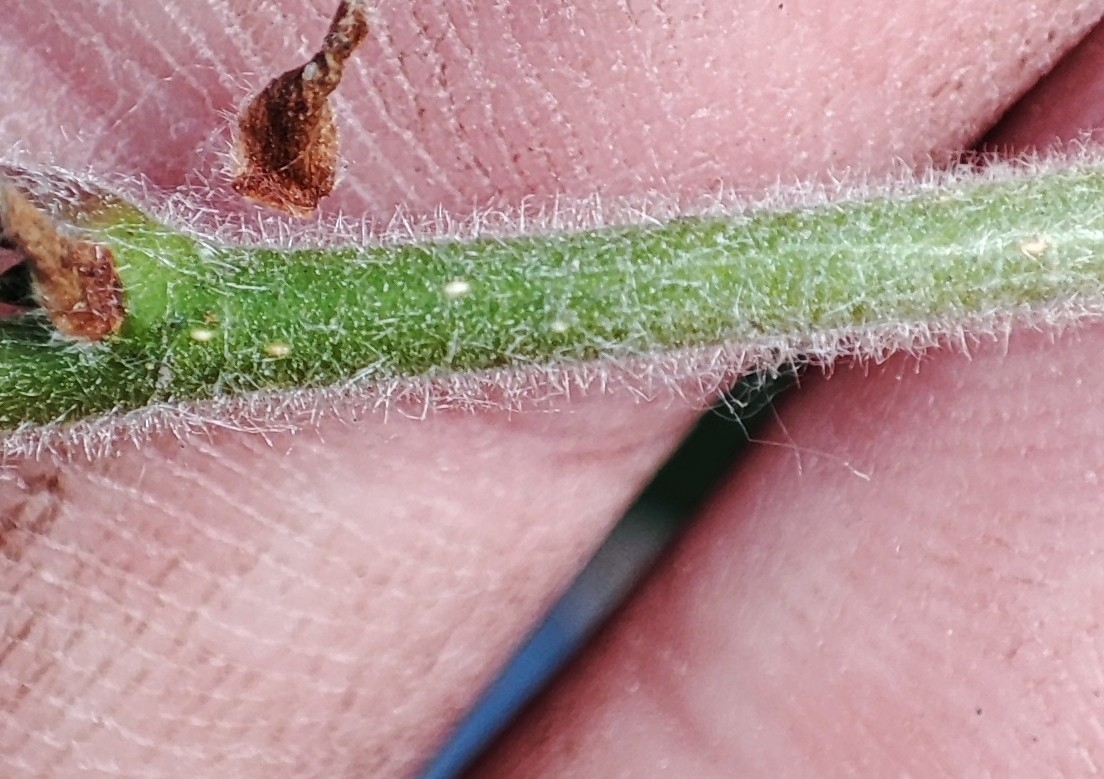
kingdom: Plantae
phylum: Tracheophyta
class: Magnoliopsida
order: Fagales
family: Betulaceae
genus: Betula
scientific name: Betula pubescens
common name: Downy birch
